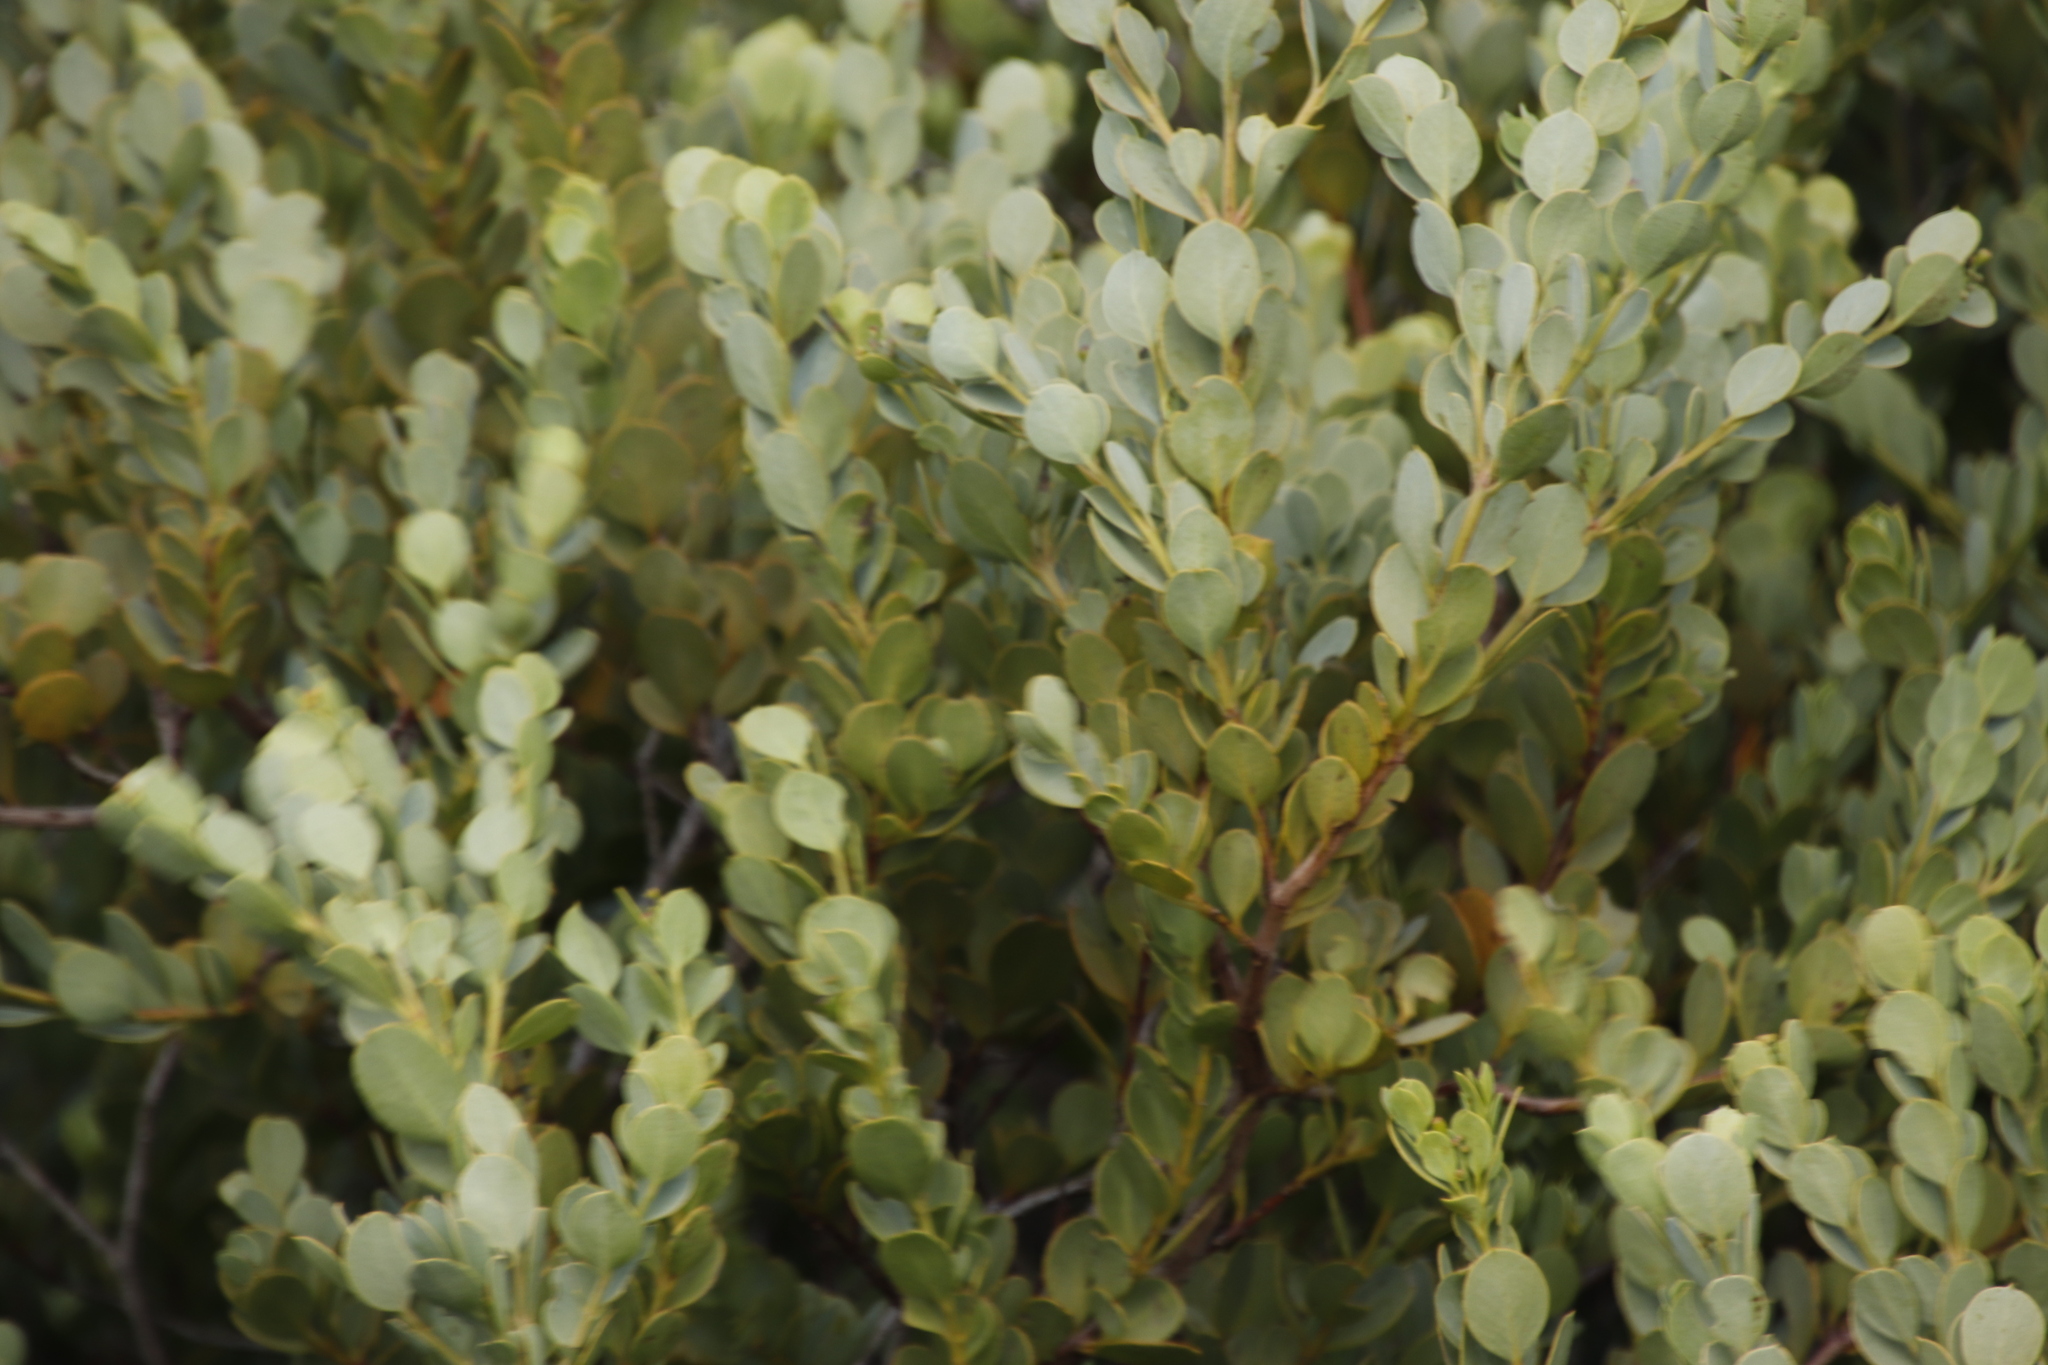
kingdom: Plantae
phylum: Tracheophyta
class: Magnoliopsida
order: Santalales
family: Santalaceae
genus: Osyris
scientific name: Osyris compressa
